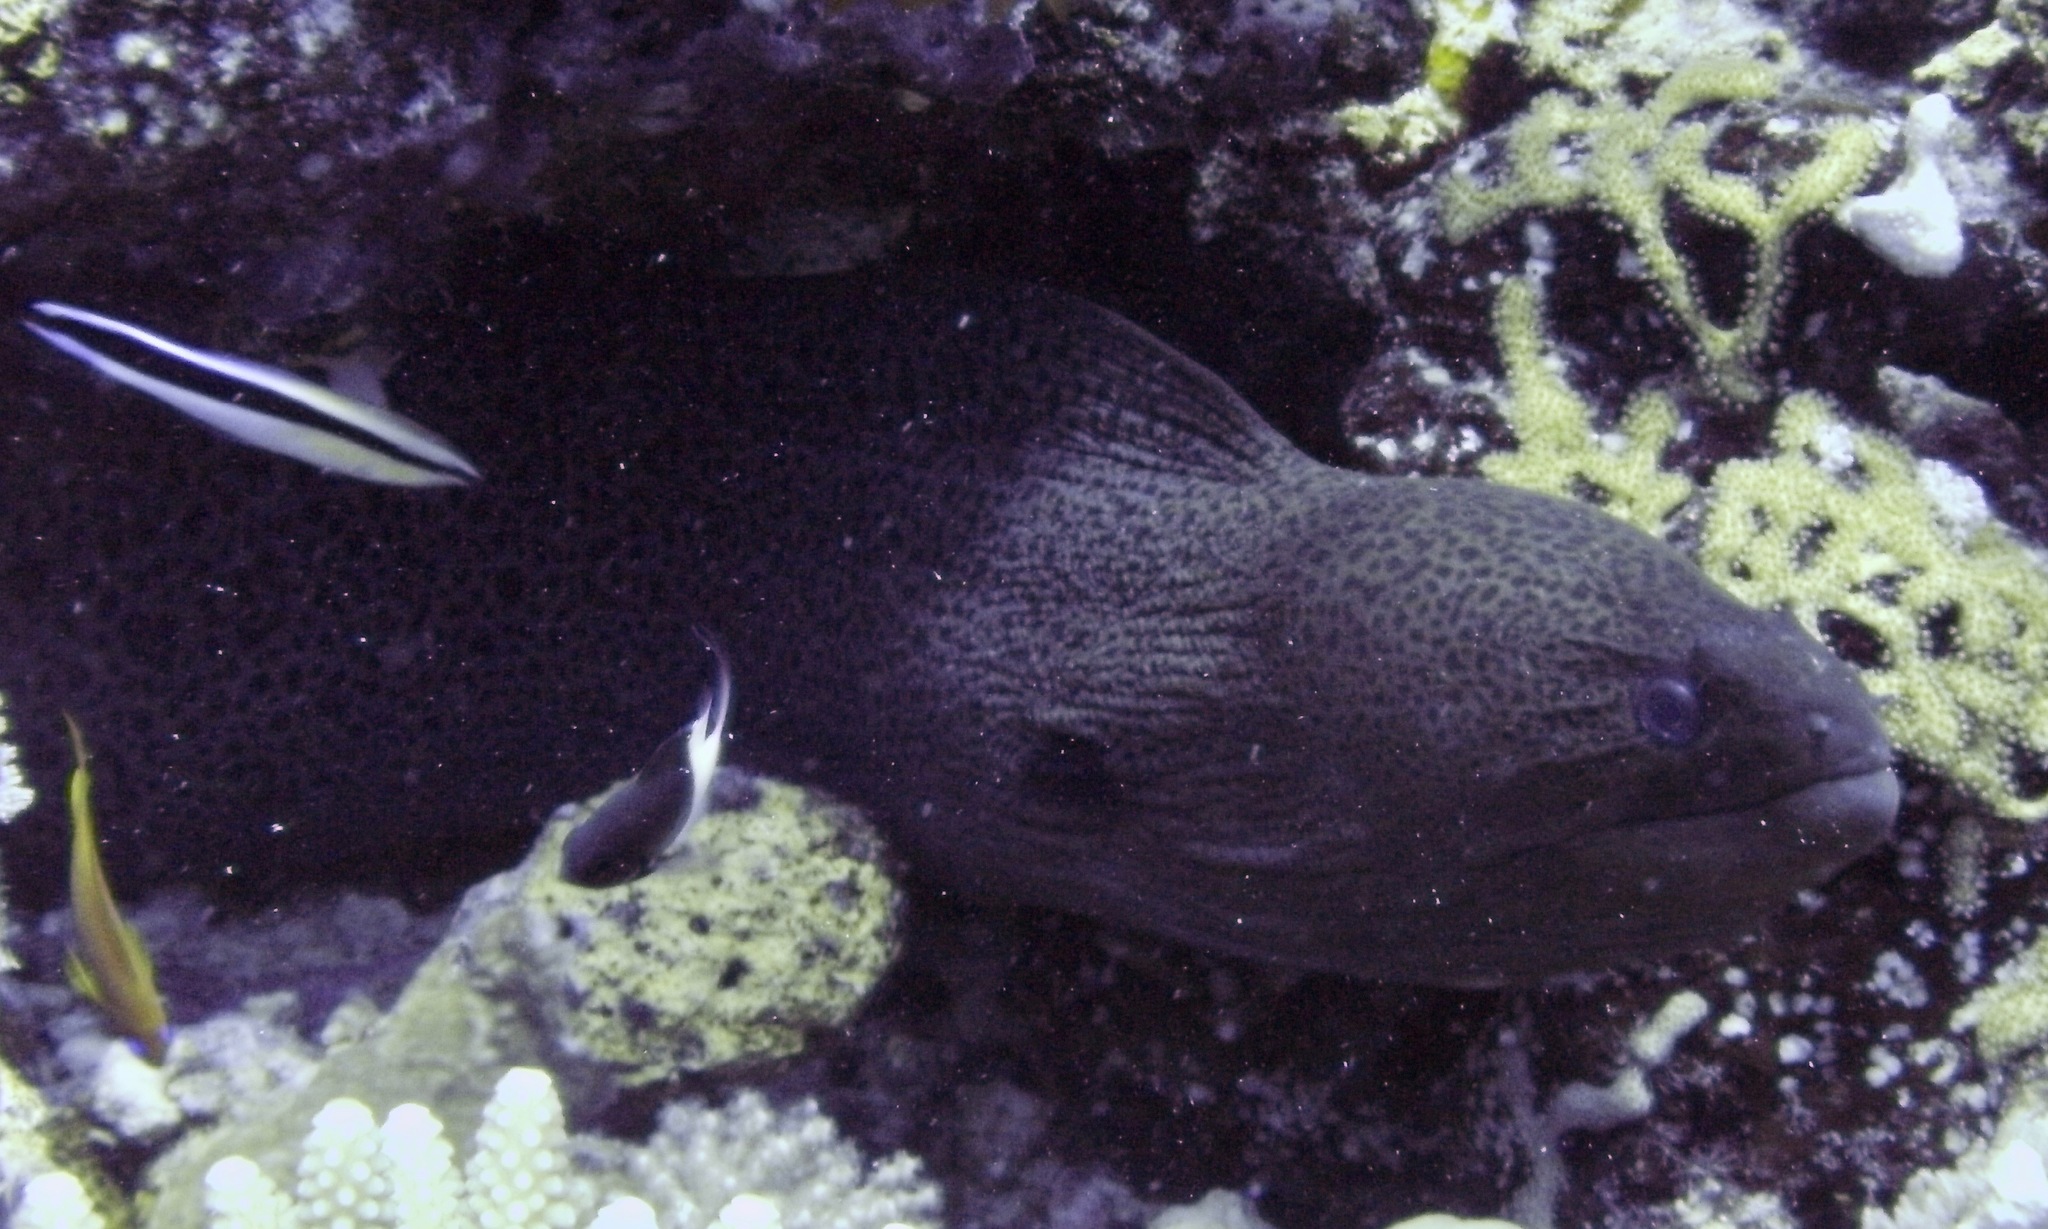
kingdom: Animalia
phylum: Chordata
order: Anguilliformes
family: Muraenidae
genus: Gymnothorax
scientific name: Gymnothorax javanicus
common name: Giant moray
